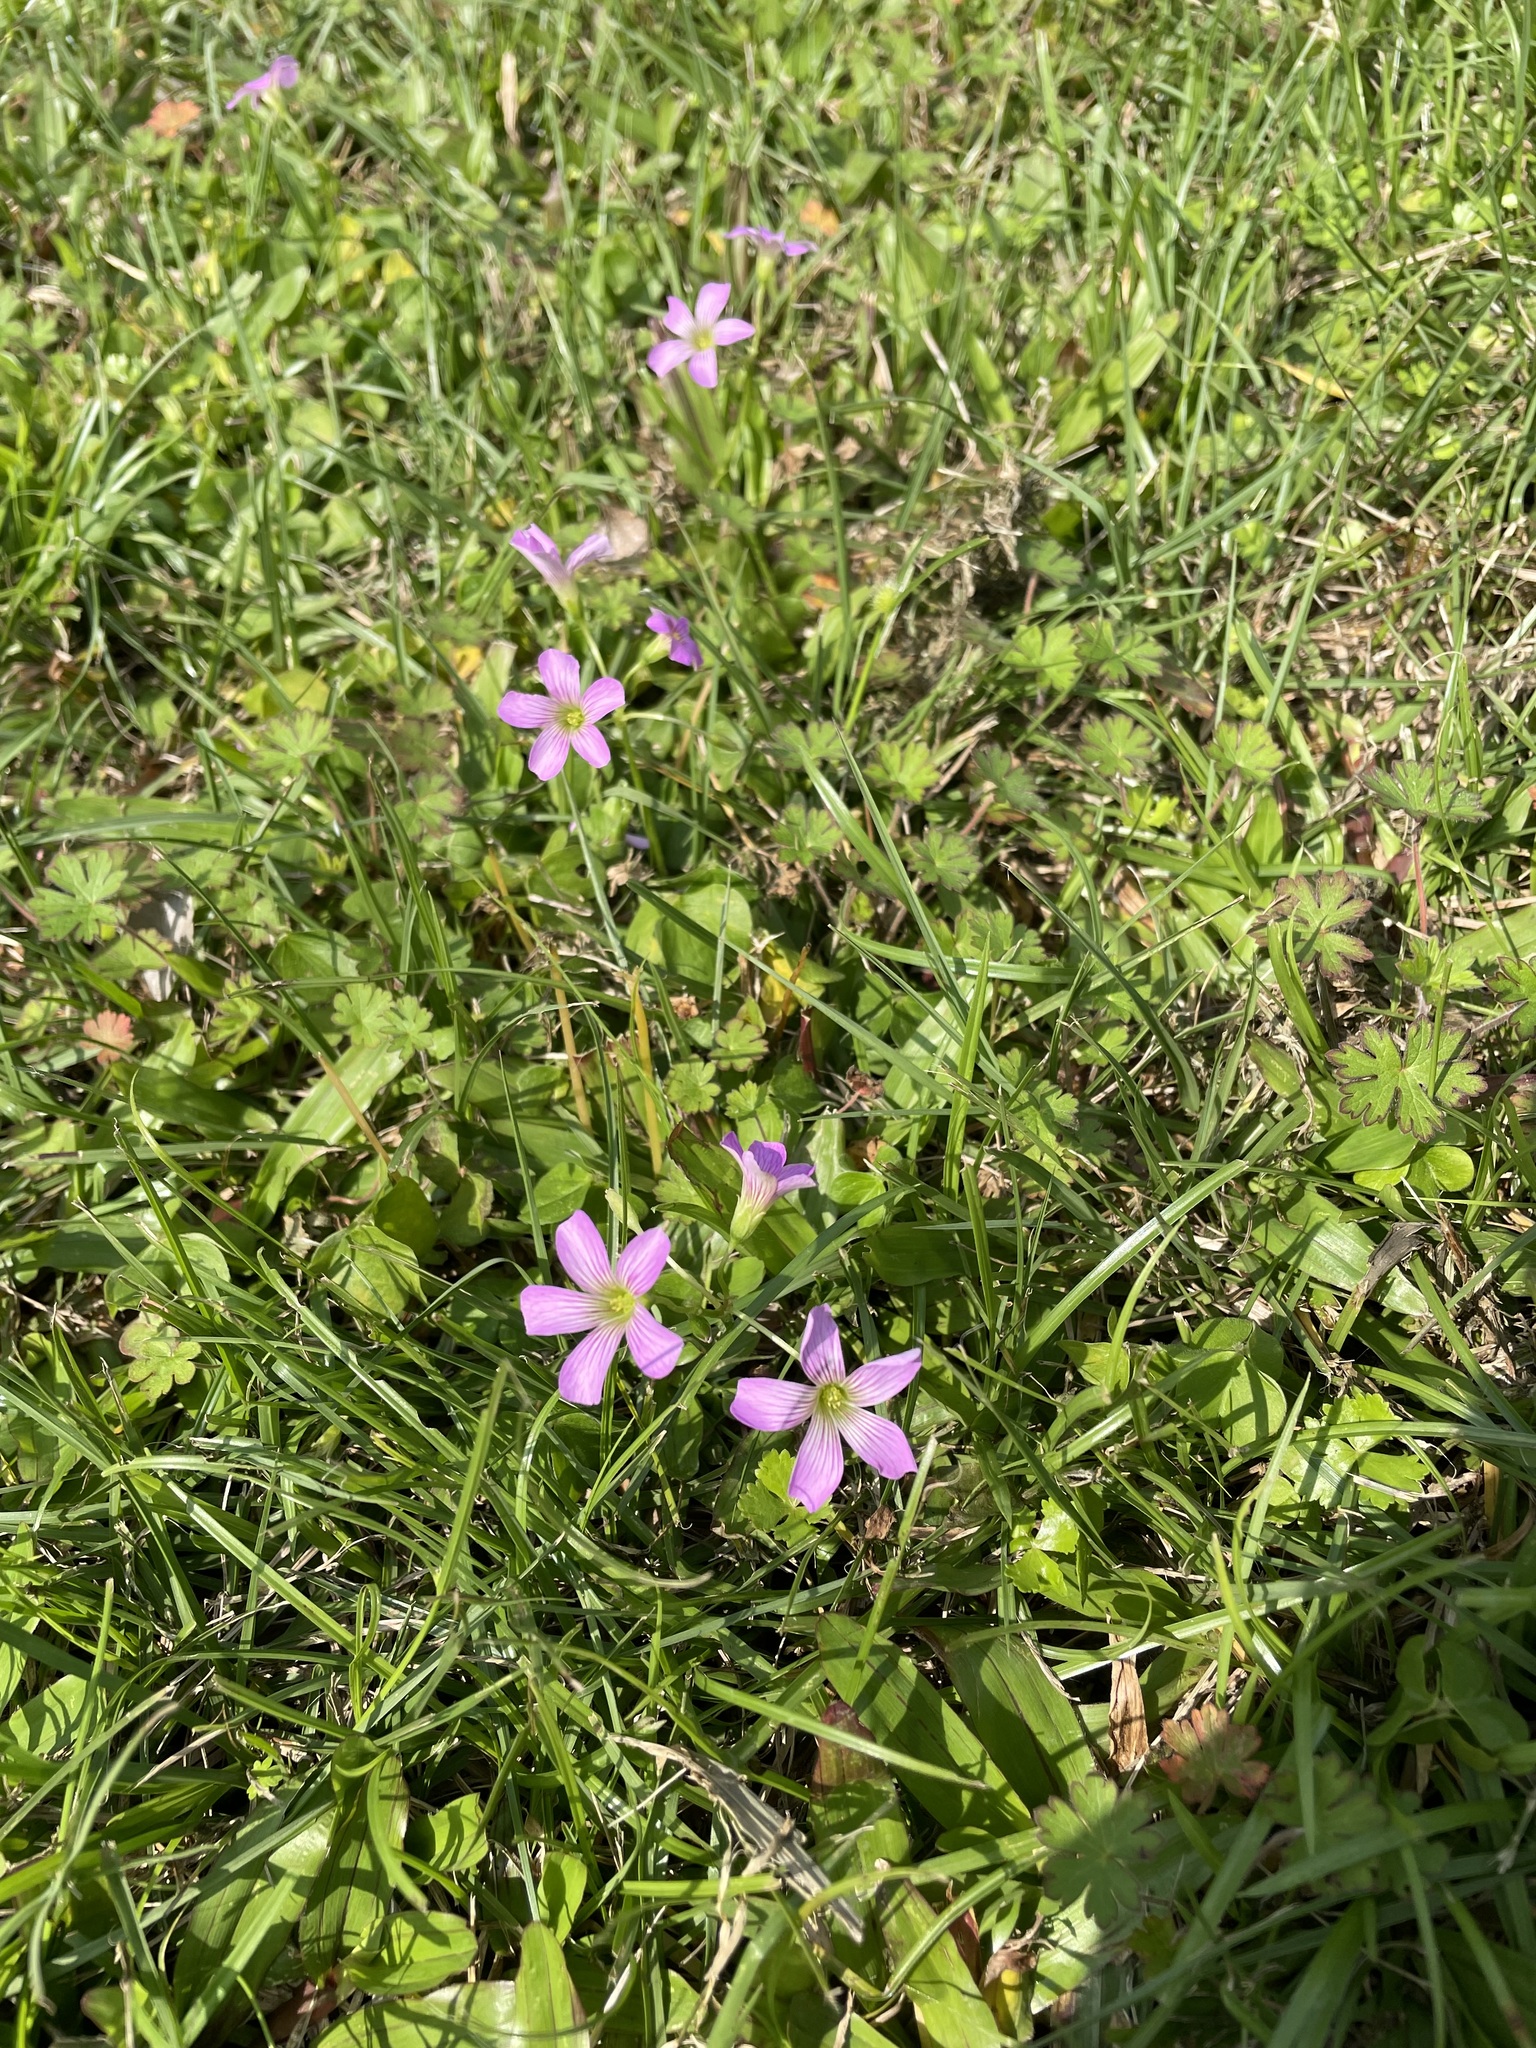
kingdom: Plantae
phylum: Tracheophyta
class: Magnoliopsida
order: Oxalidales
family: Oxalidaceae
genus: Oxalis
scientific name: Oxalis debilis
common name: Large-flowered pink-sorrel
